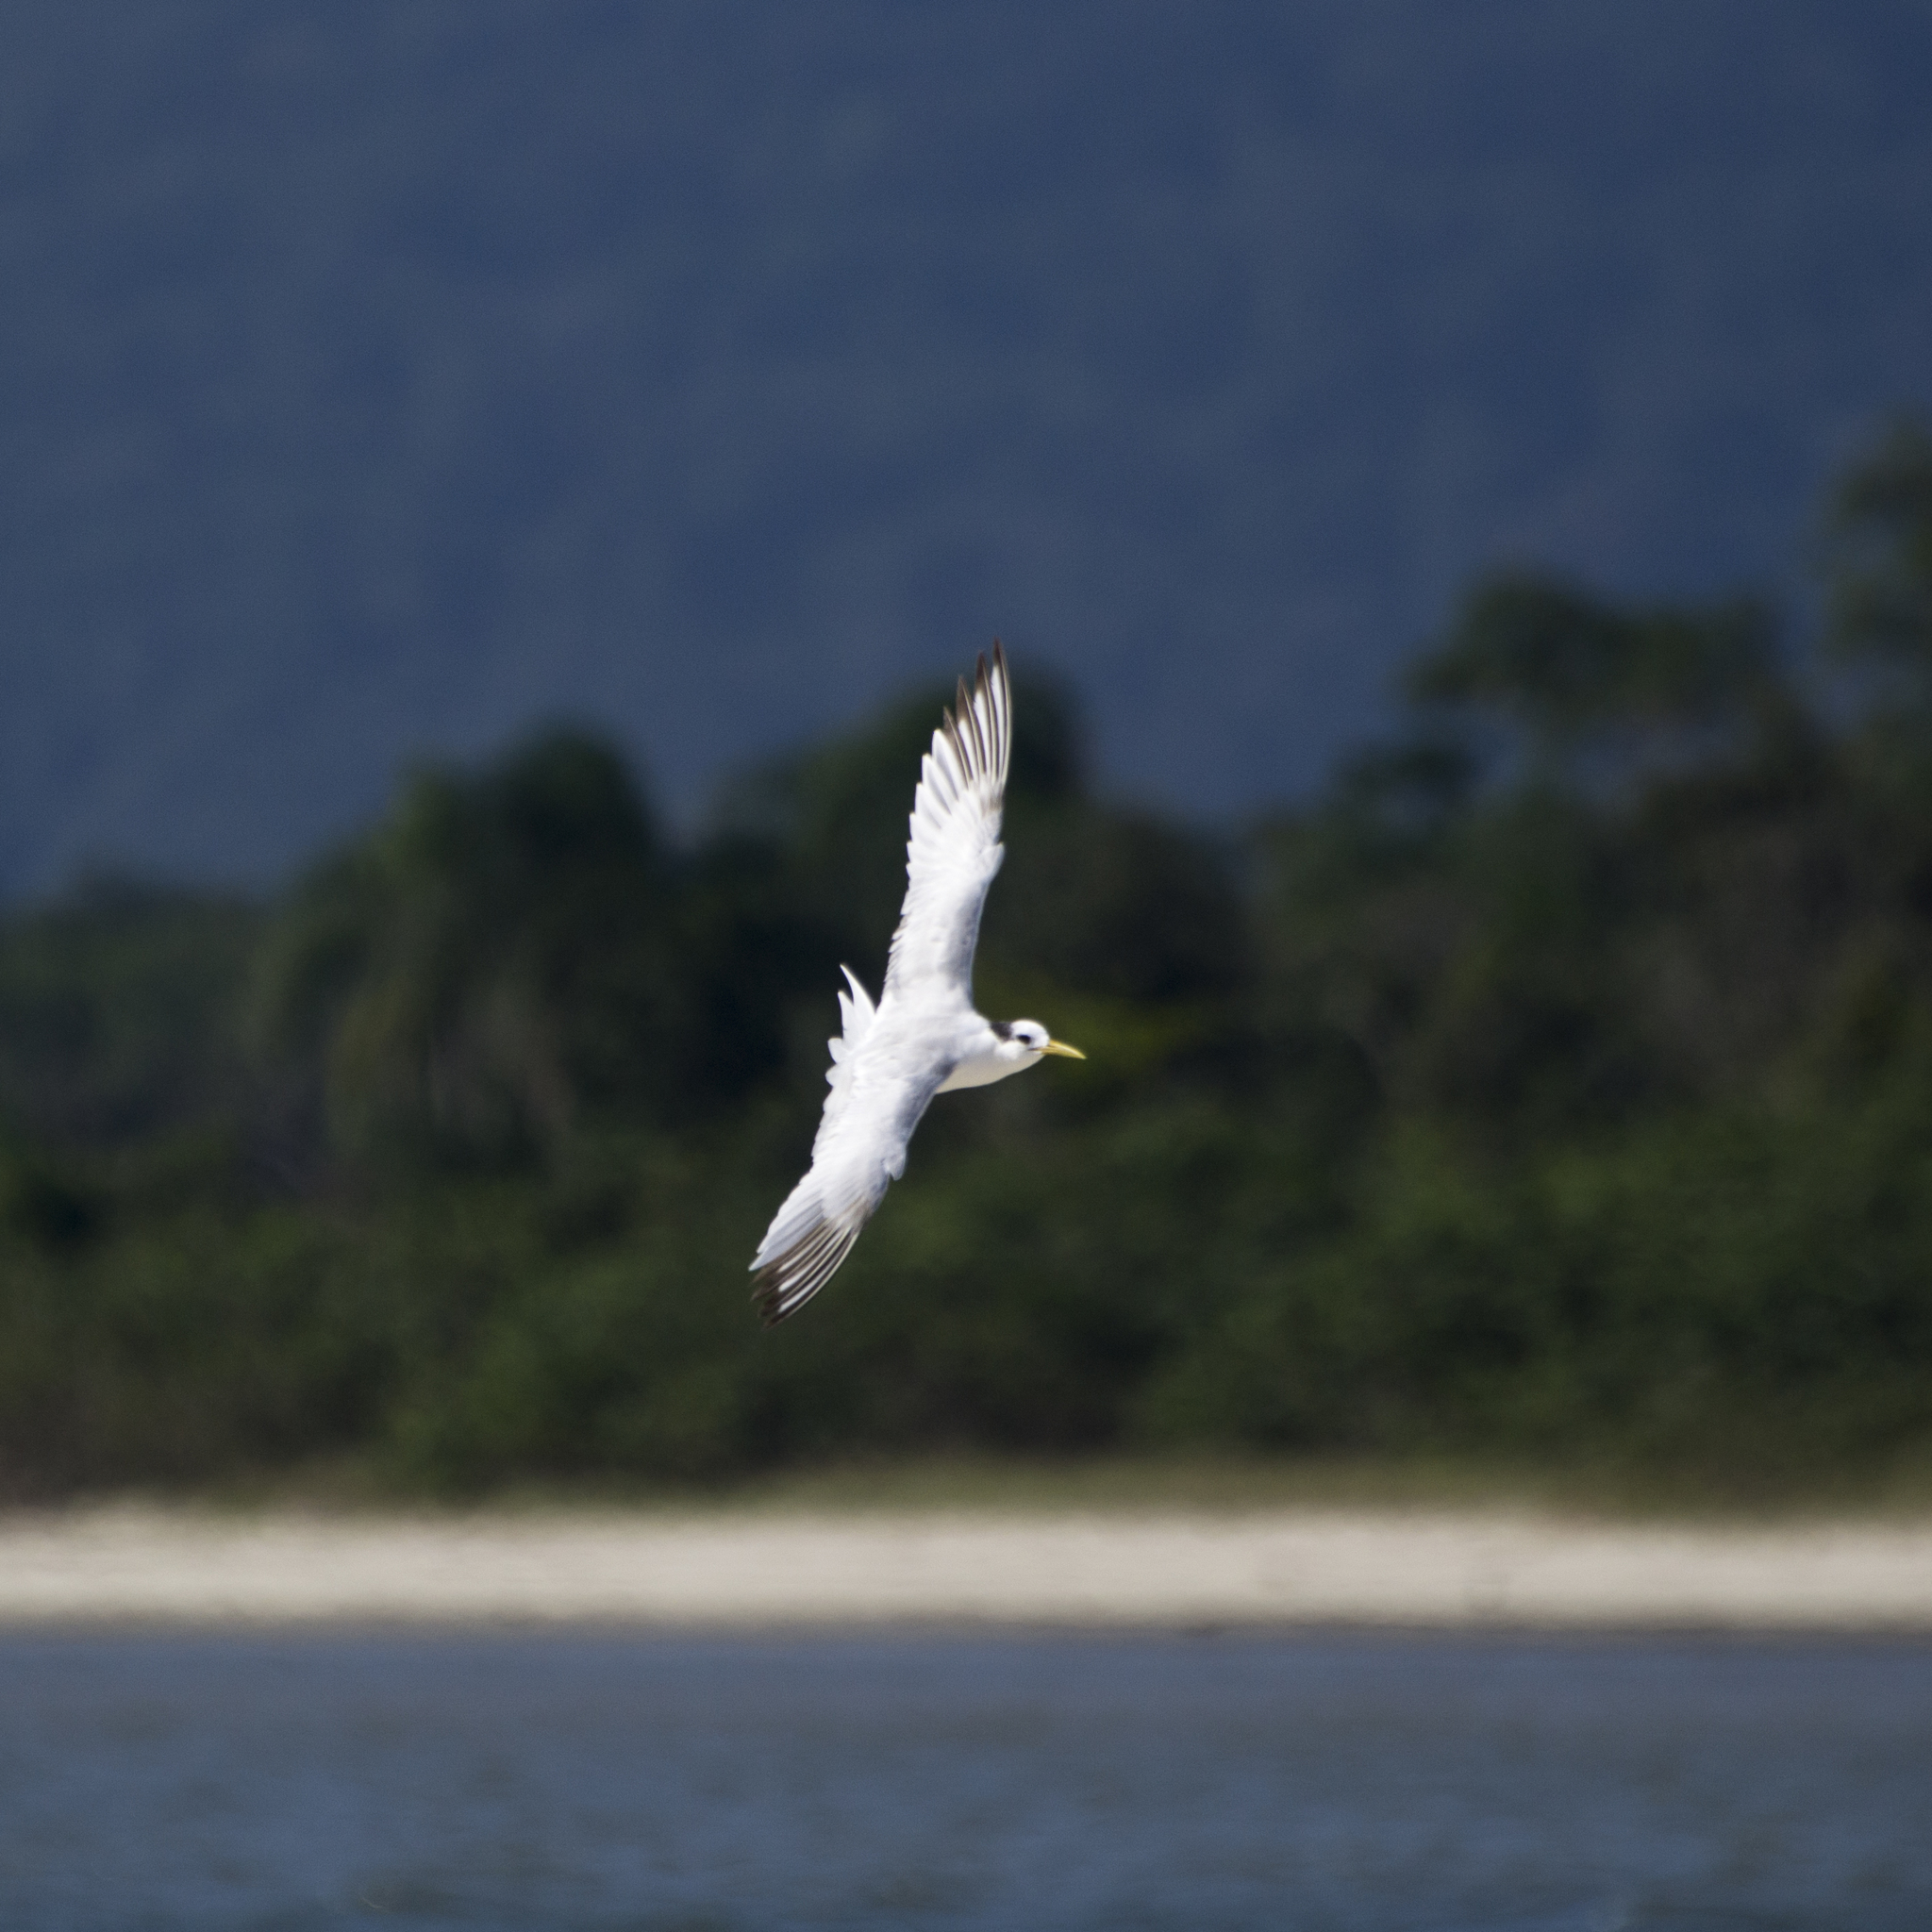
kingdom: Animalia
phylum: Chordata
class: Aves
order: Charadriiformes
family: Laridae
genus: Thalasseus
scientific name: Thalasseus sandvicensis
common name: Sandwich tern
